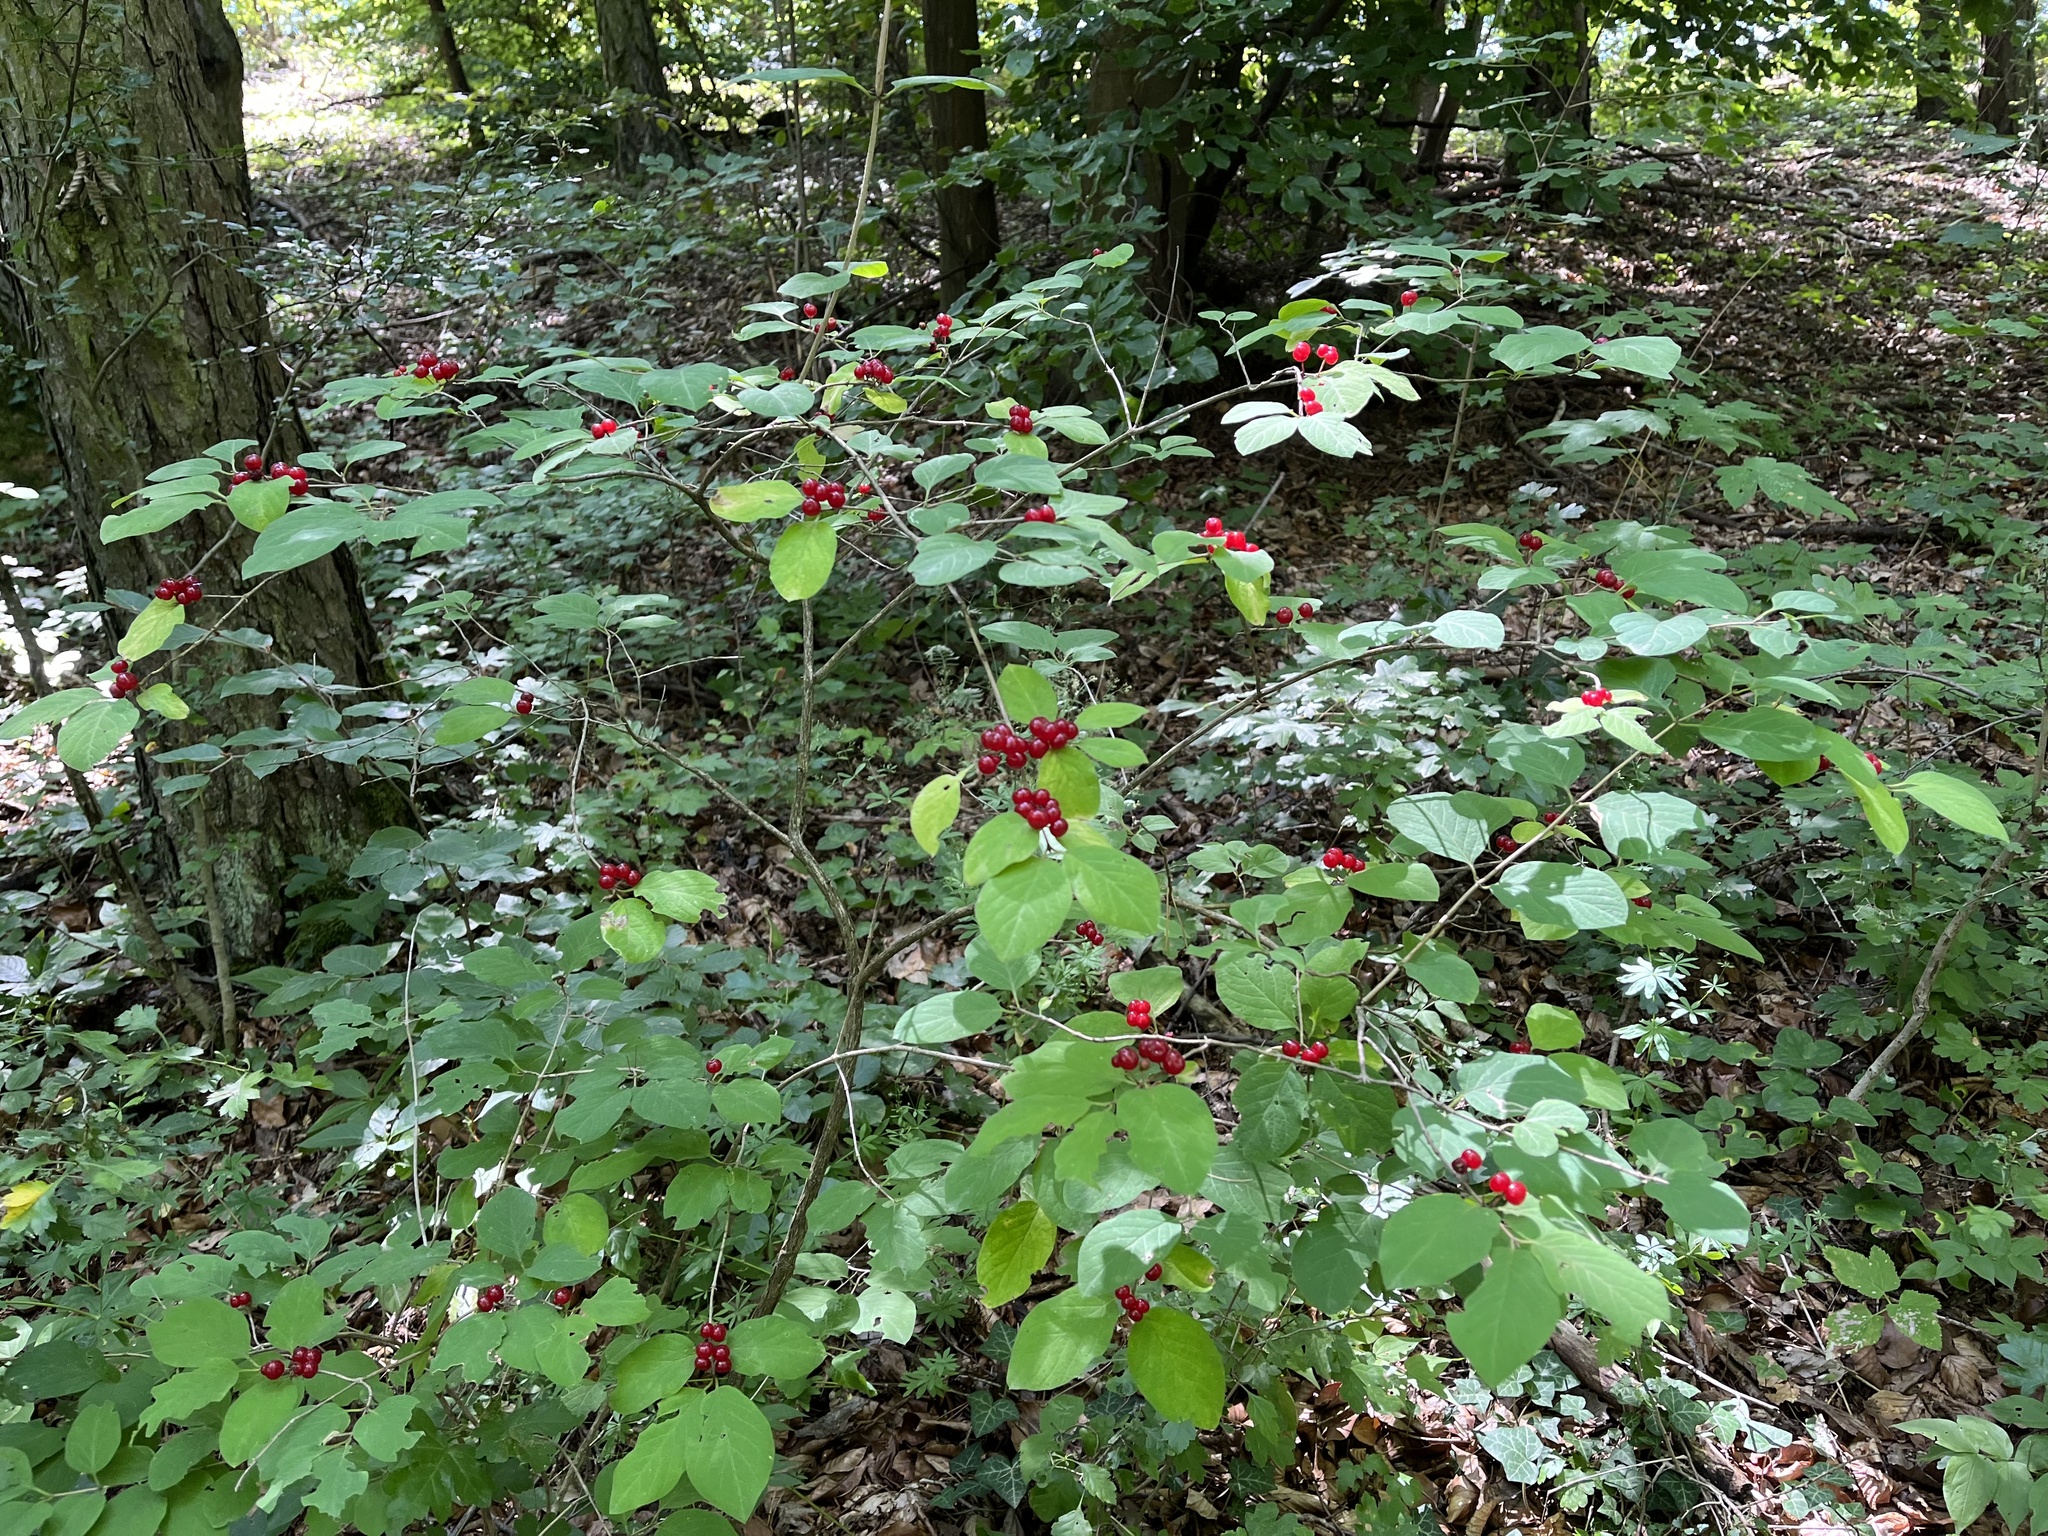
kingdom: Plantae
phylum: Tracheophyta
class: Magnoliopsida
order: Dipsacales
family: Caprifoliaceae
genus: Lonicera
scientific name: Lonicera xylosteum
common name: Fly honeysuckle
